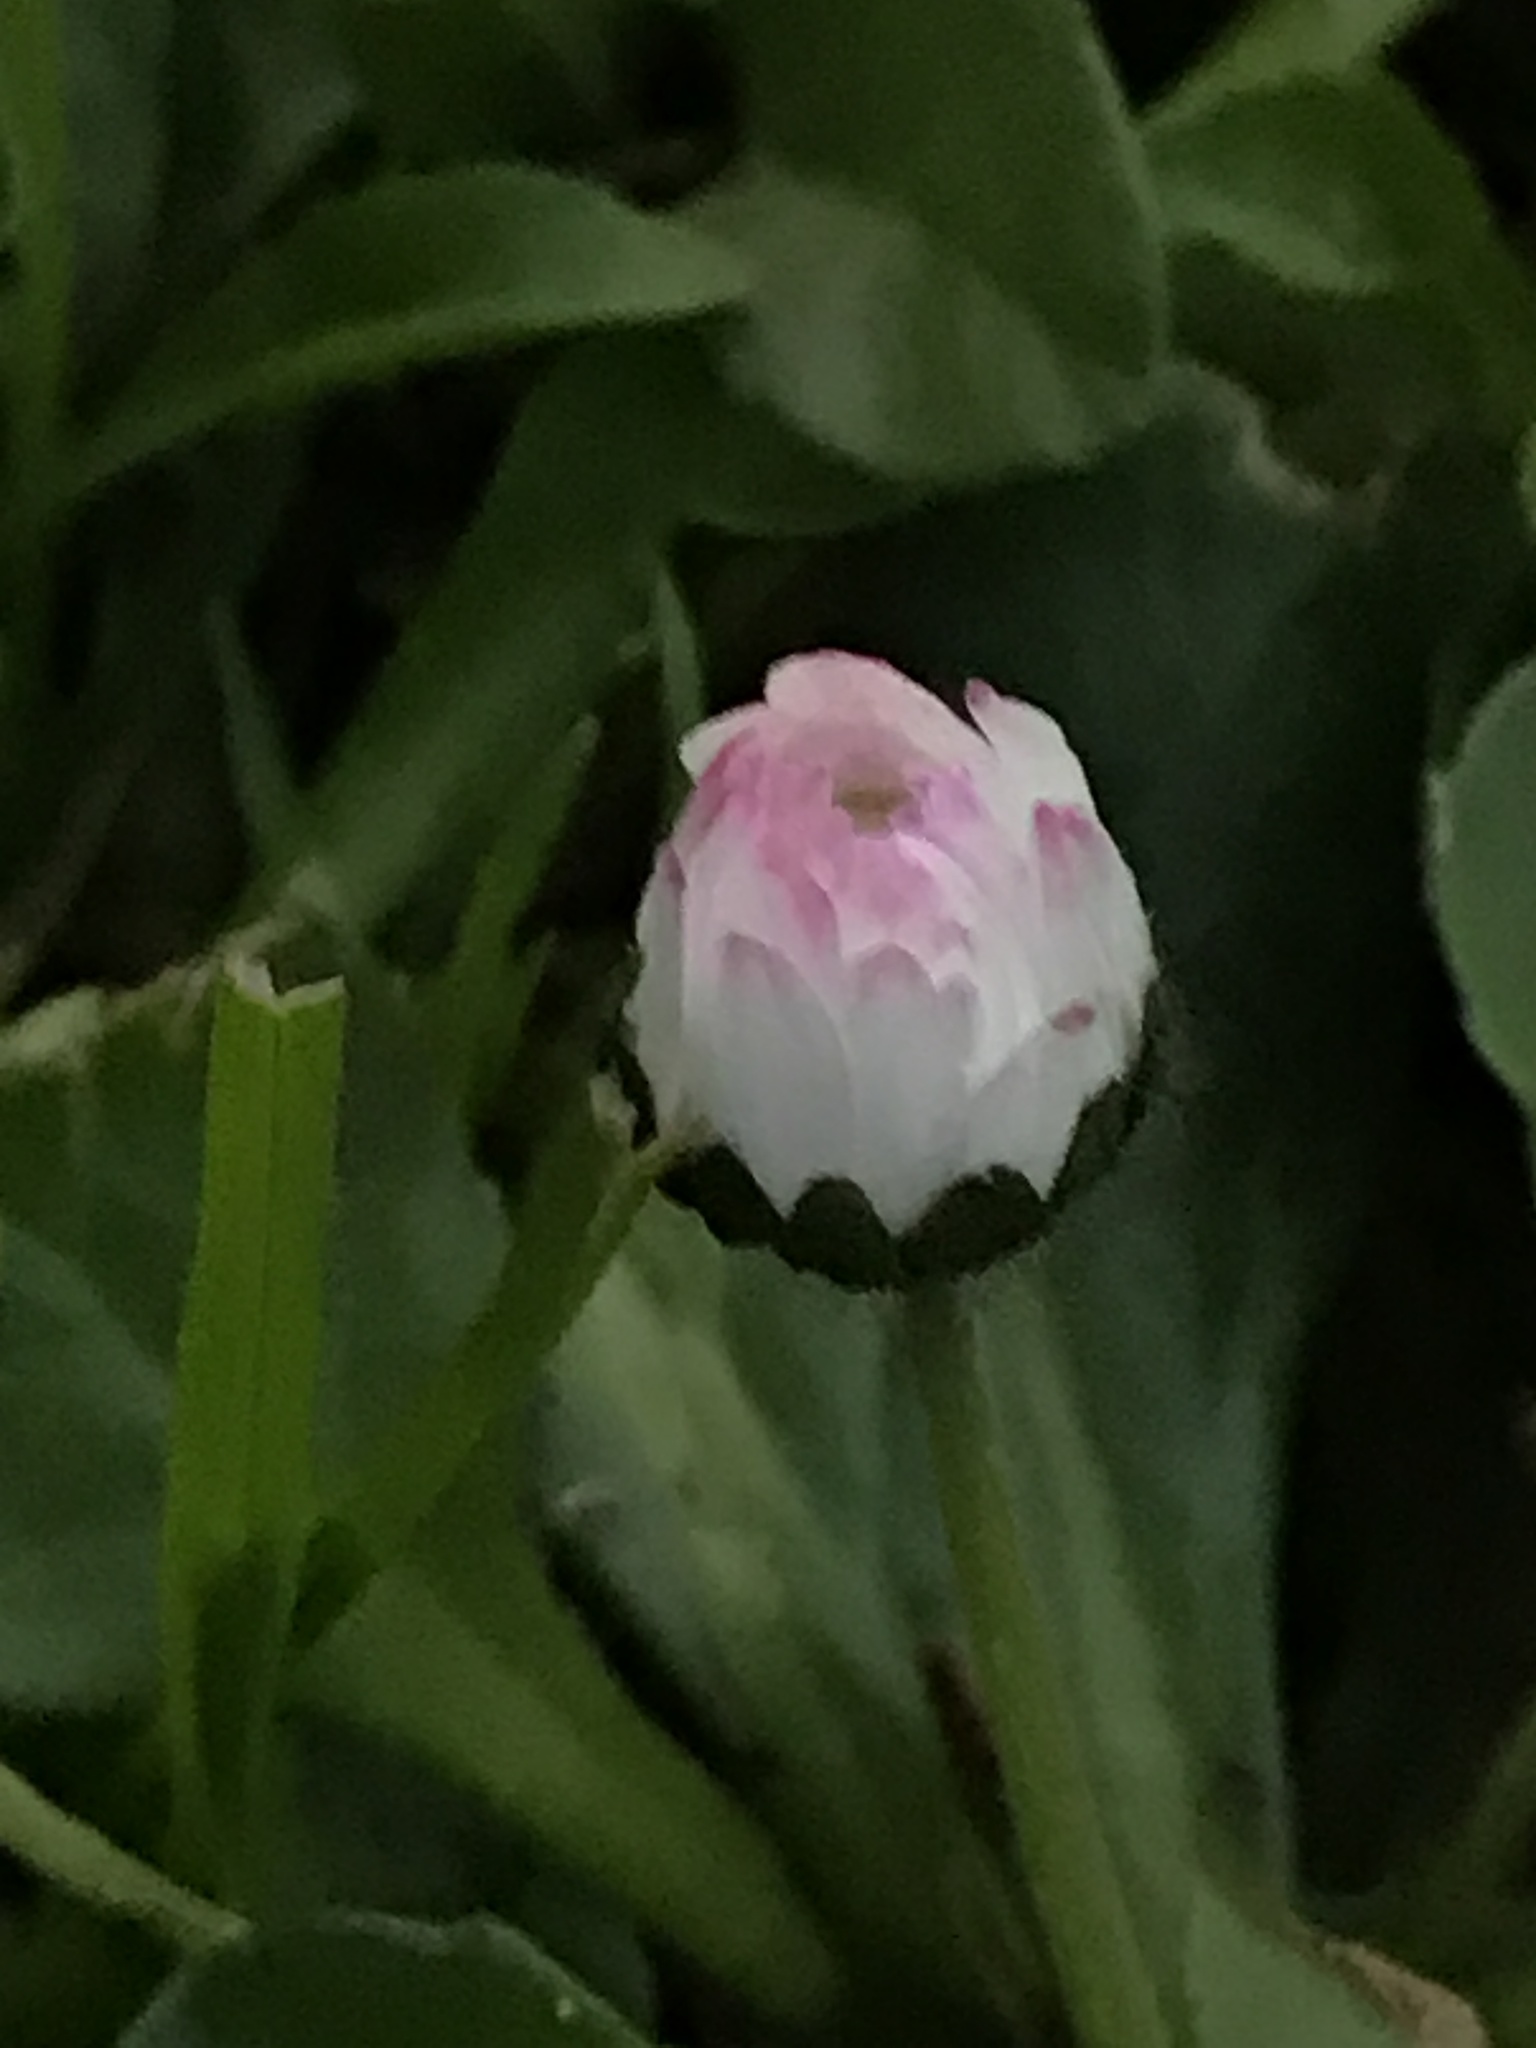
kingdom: Plantae
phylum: Tracheophyta
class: Magnoliopsida
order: Asterales
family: Asteraceae
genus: Bellis
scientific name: Bellis perennis
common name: Lawndaisy
